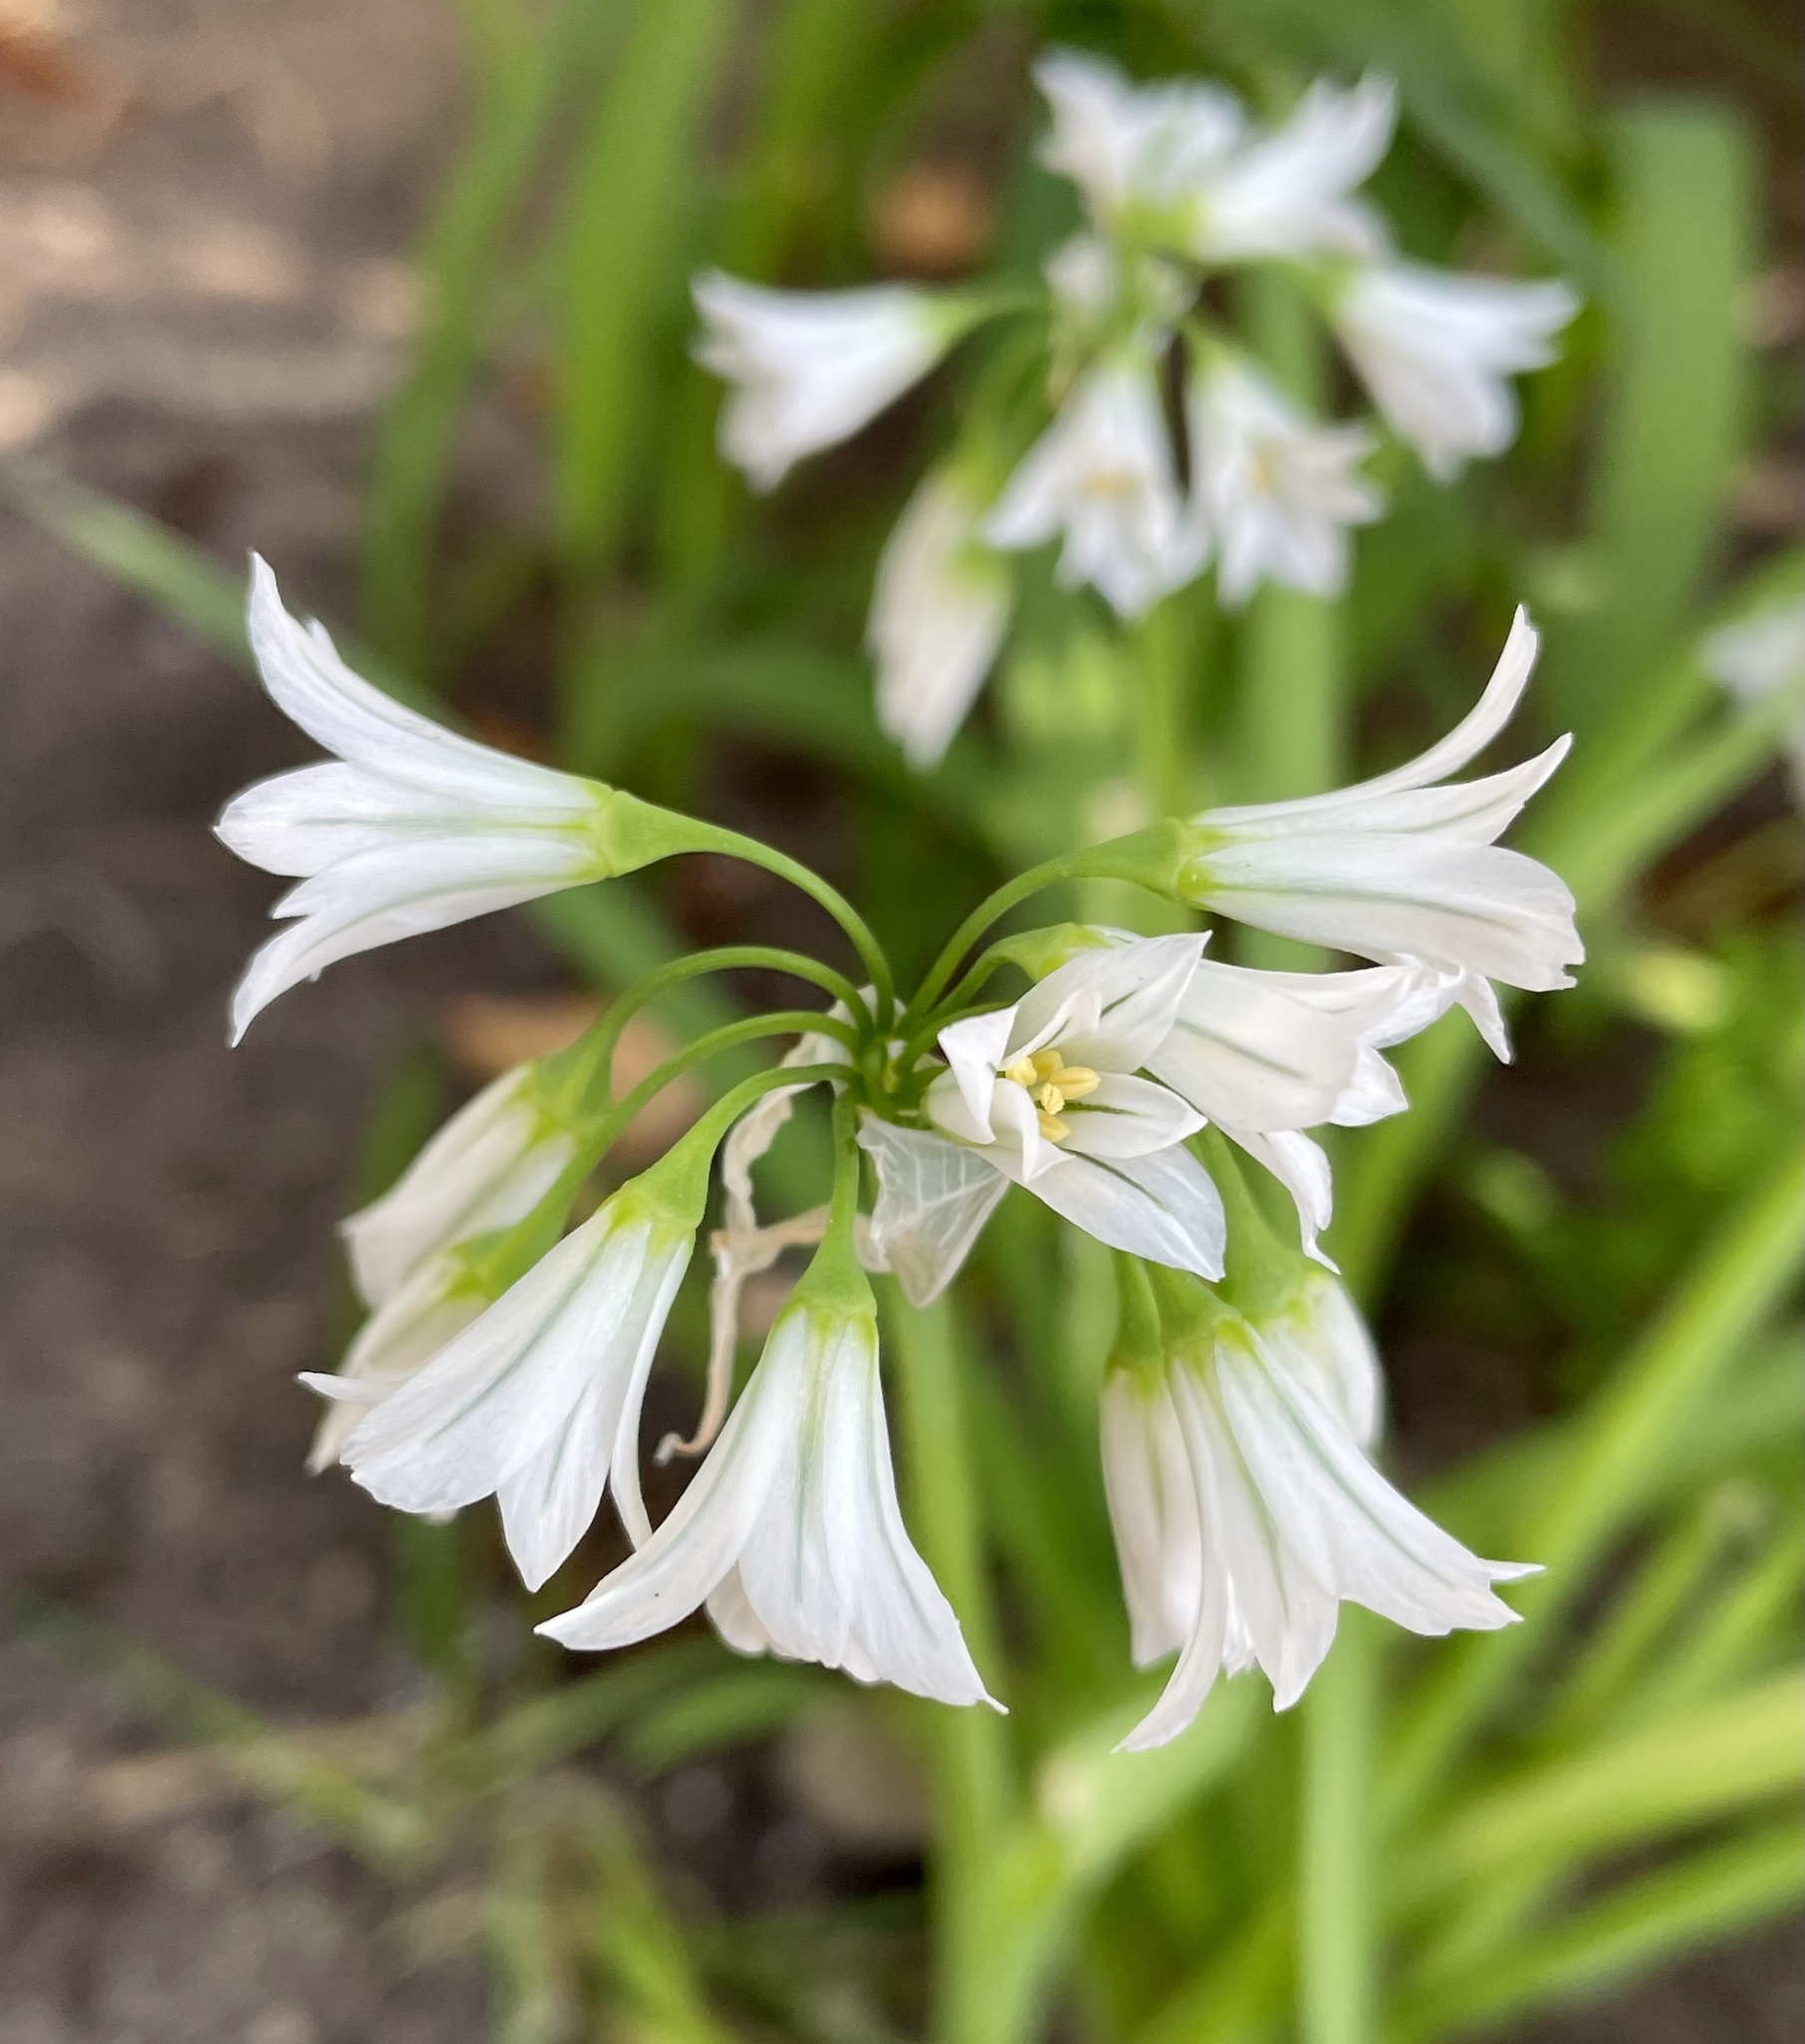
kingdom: Plantae
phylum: Tracheophyta
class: Liliopsida
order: Asparagales
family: Amaryllidaceae
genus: Allium
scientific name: Allium triquetrum
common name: Three-cornered garlic
